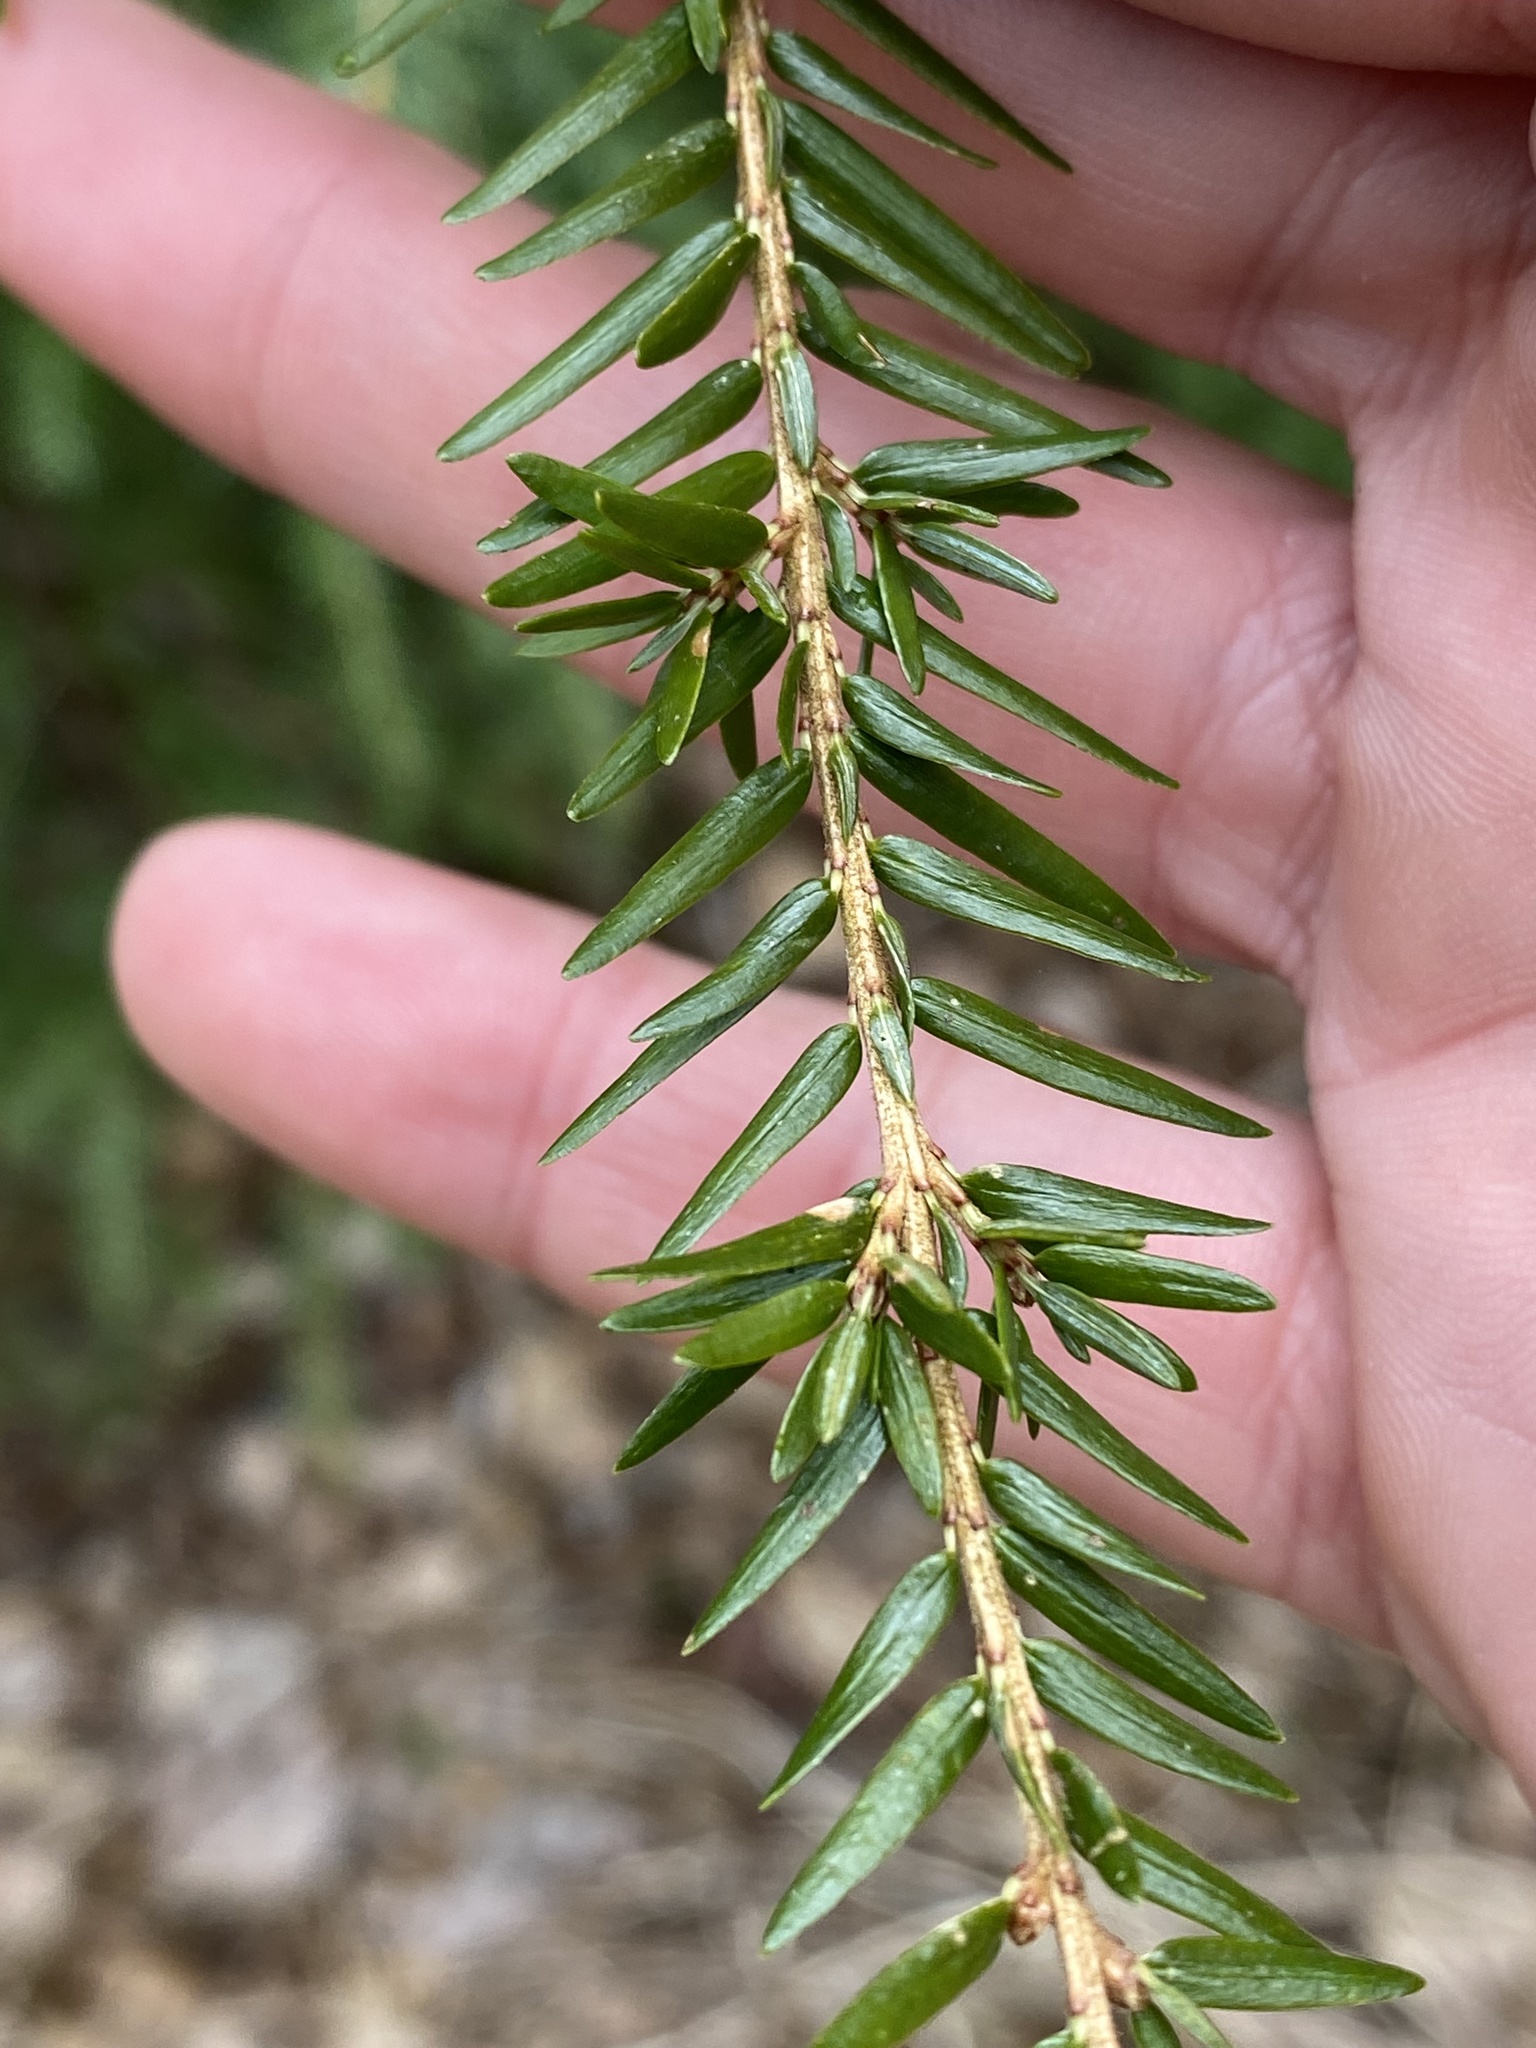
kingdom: Plantae
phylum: Tracheophyta
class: Pinopsida
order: Pinales
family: Pinaceae
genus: Tsuga
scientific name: Tsuga canadensis
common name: Eastern hemlock
